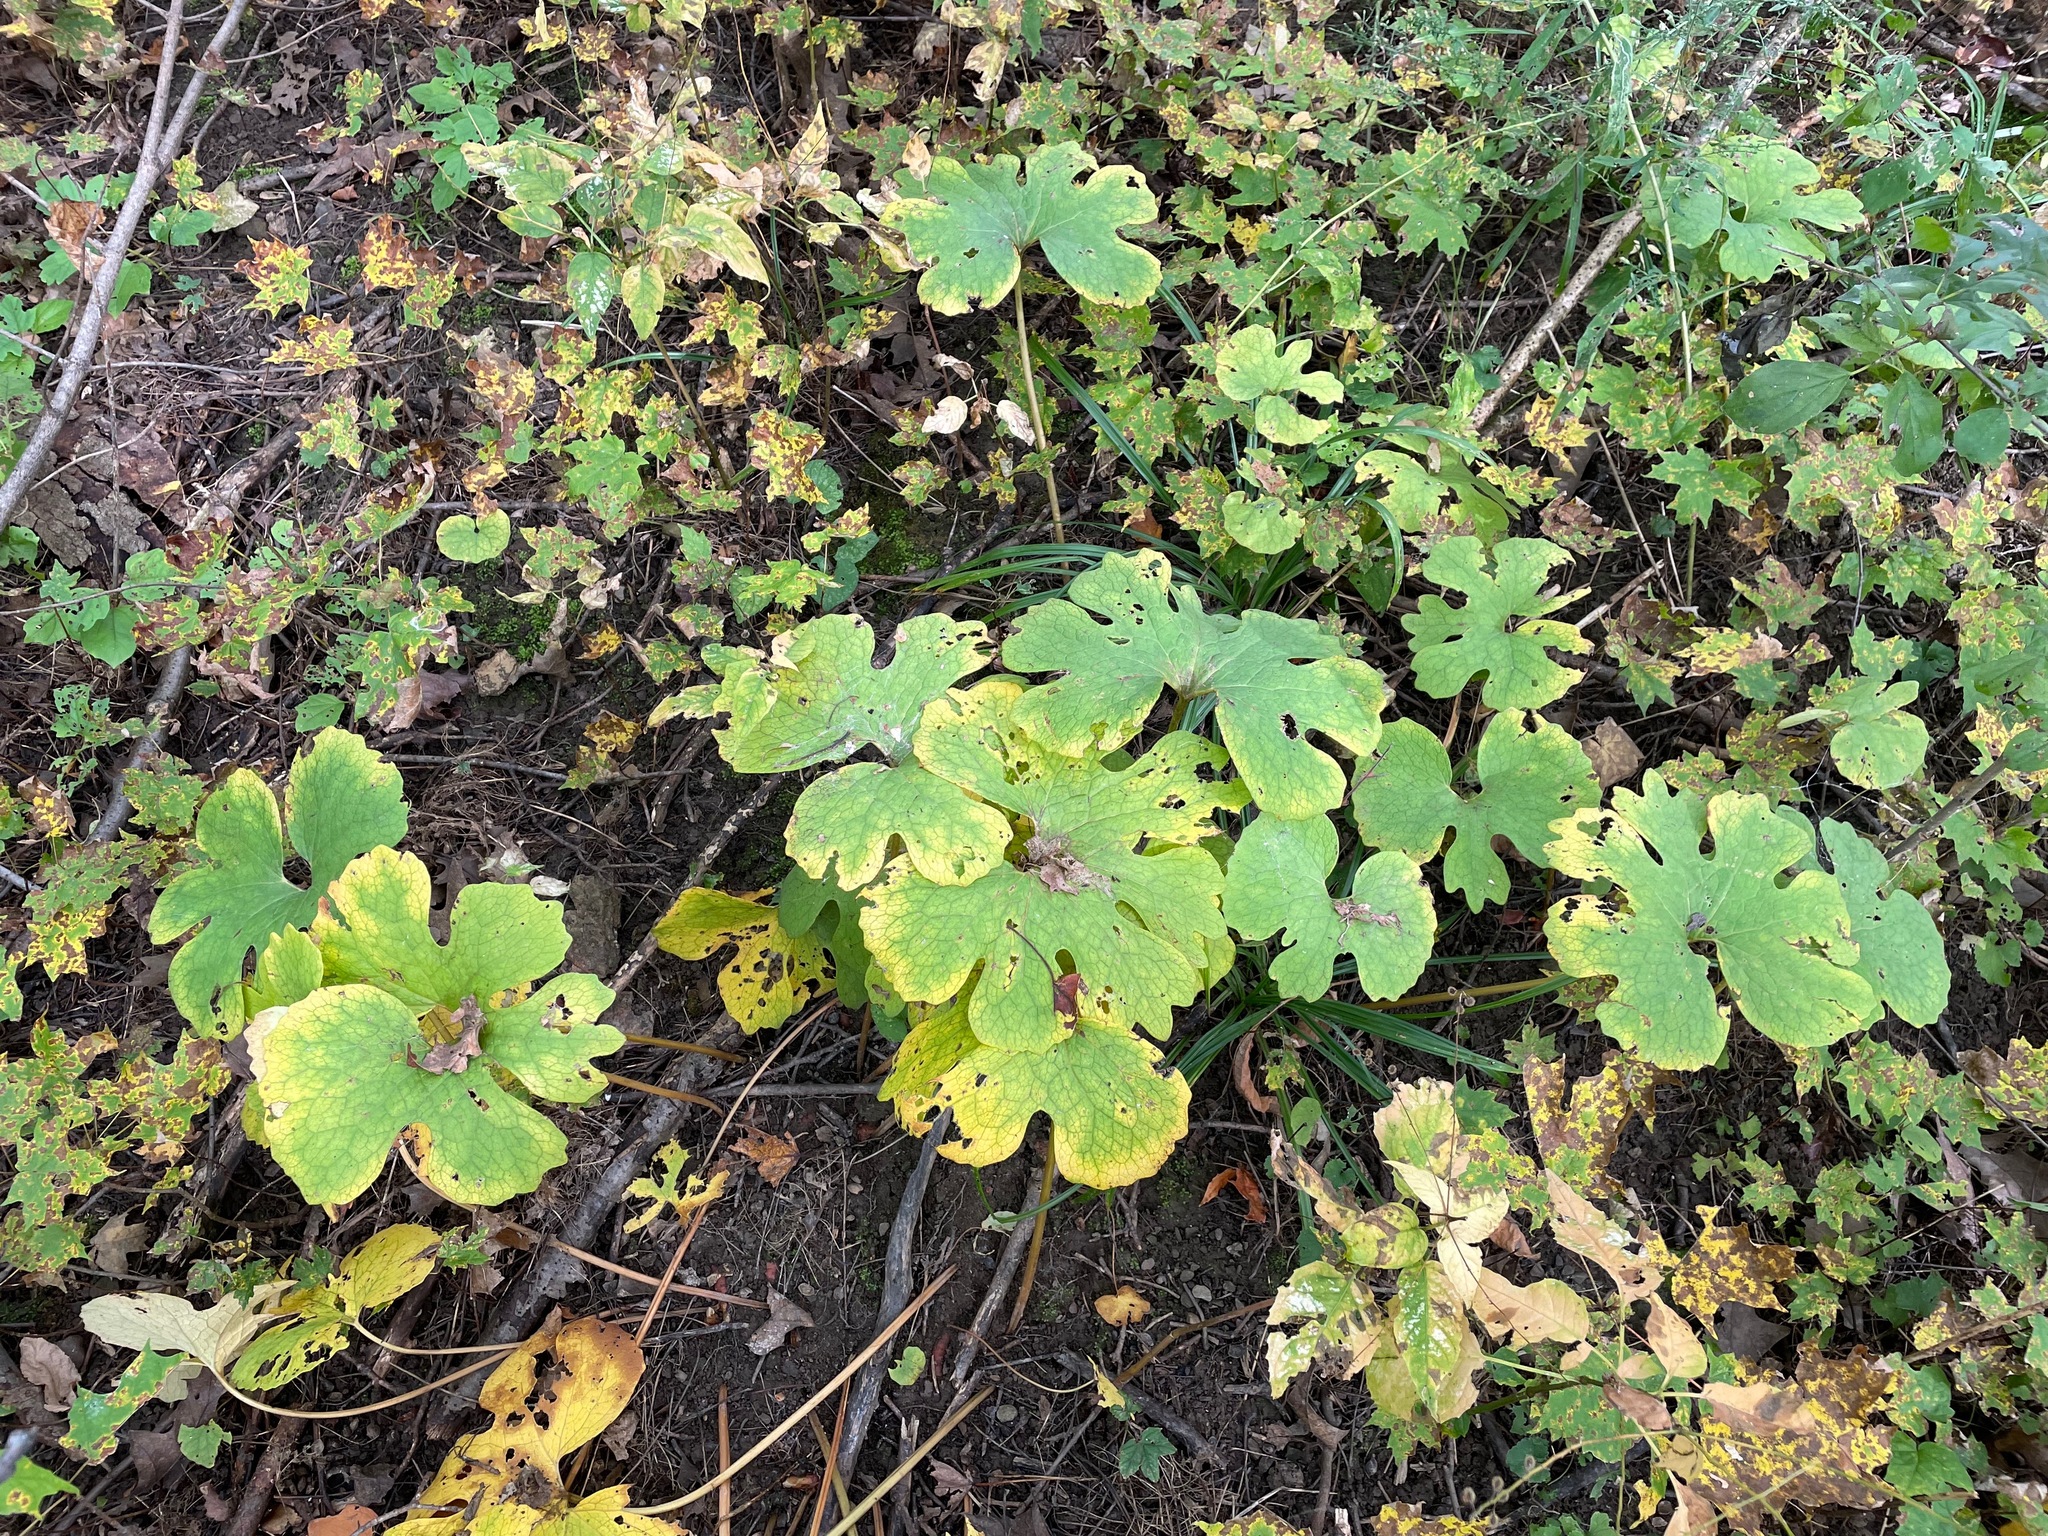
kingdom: Plantae
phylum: Tracheophyta
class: Magnoliopsida
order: Ranunculales
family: Papaveraceae
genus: Sanguinaria
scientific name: Sanguinaria canadensis
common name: Bloodroot
